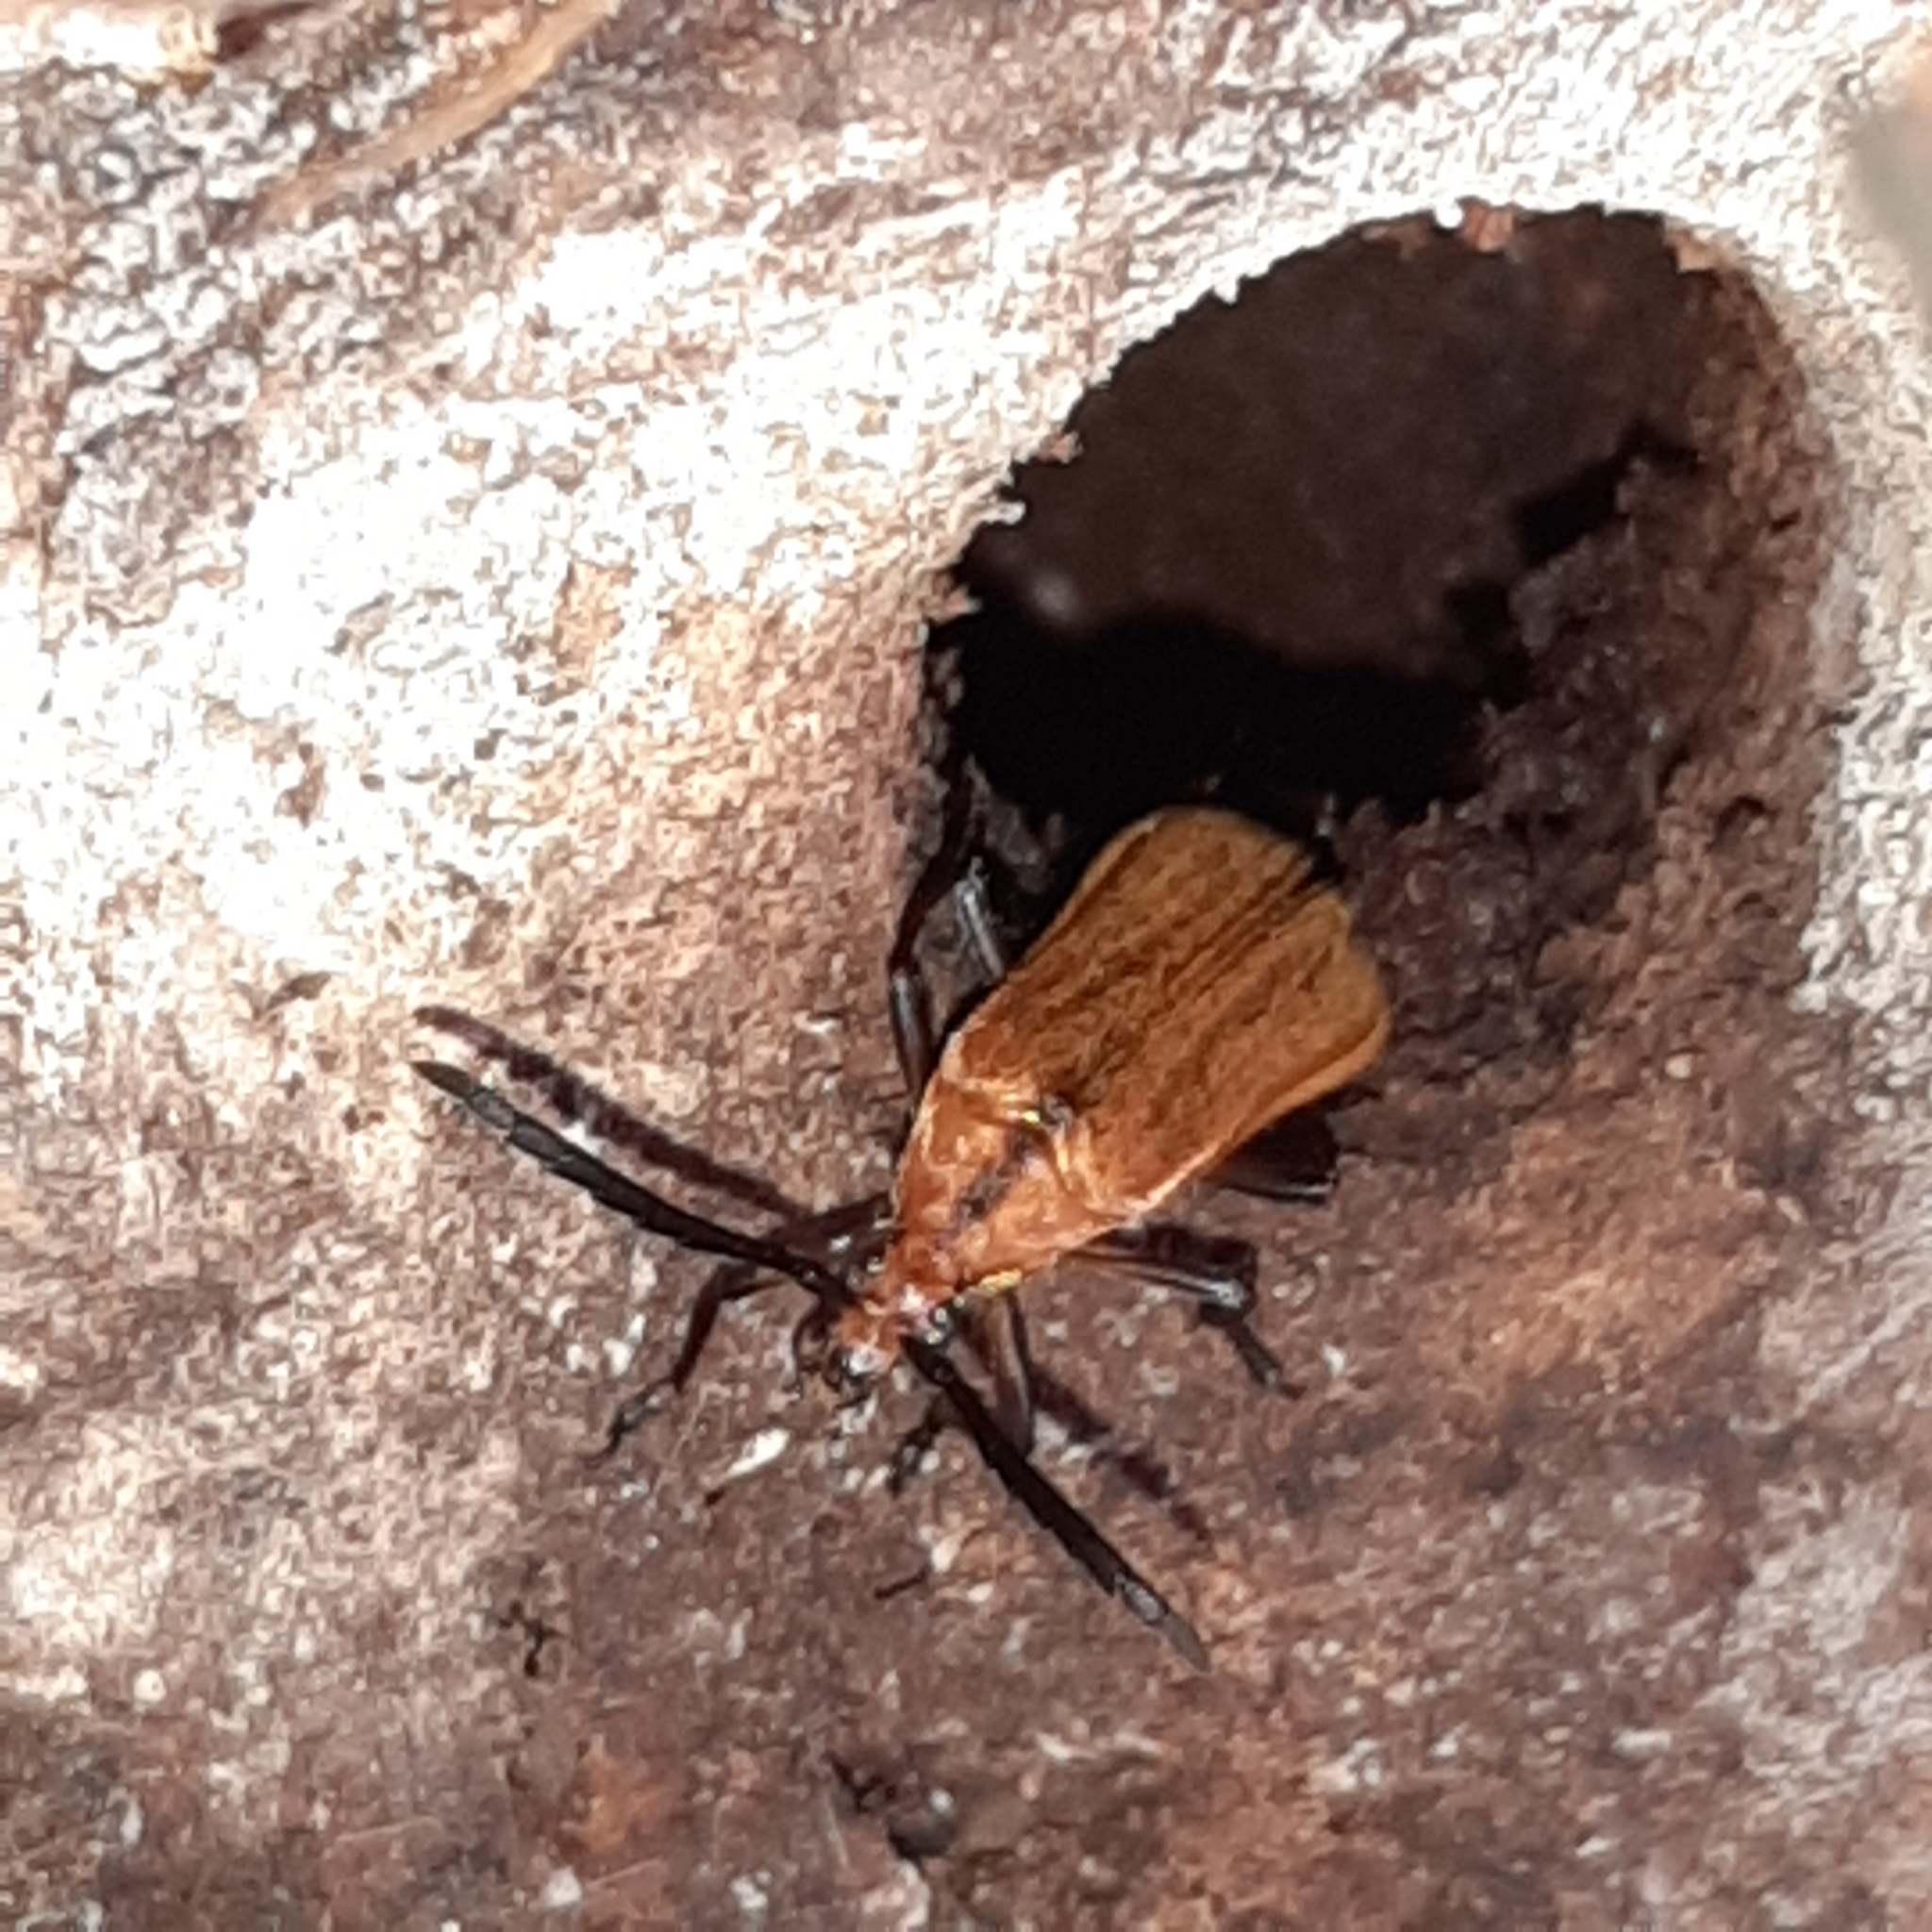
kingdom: Animalia
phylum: Arthropoda
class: Insecta
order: Coleoptera
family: Cerambycidae
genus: Mimiptera
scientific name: Mimiptera fulvella
